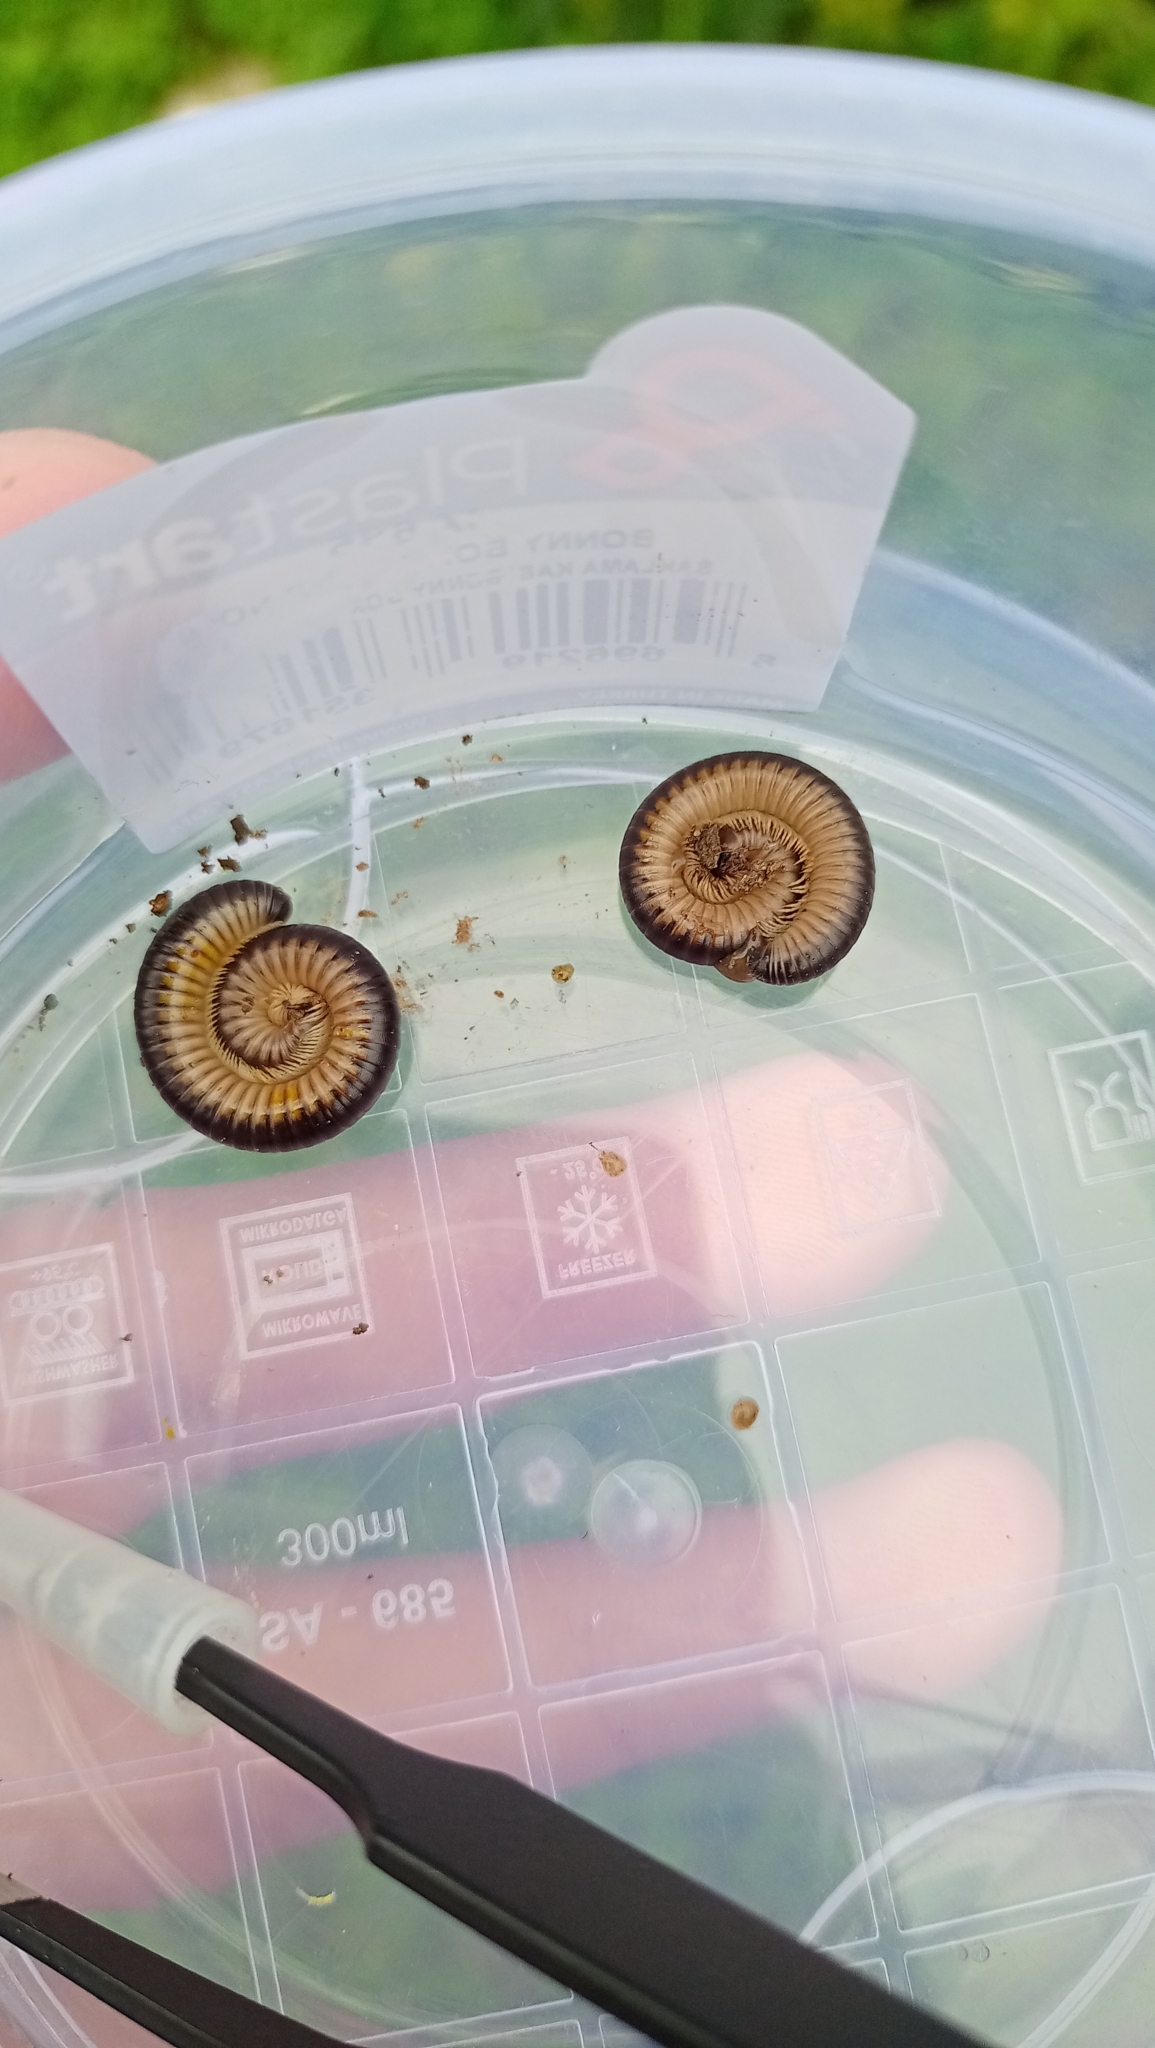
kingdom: Animalia
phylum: Arthropoda
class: Diplopoda
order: Julida
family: Julidae
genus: Pachyiulus
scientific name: Pachyiulus flavipes
